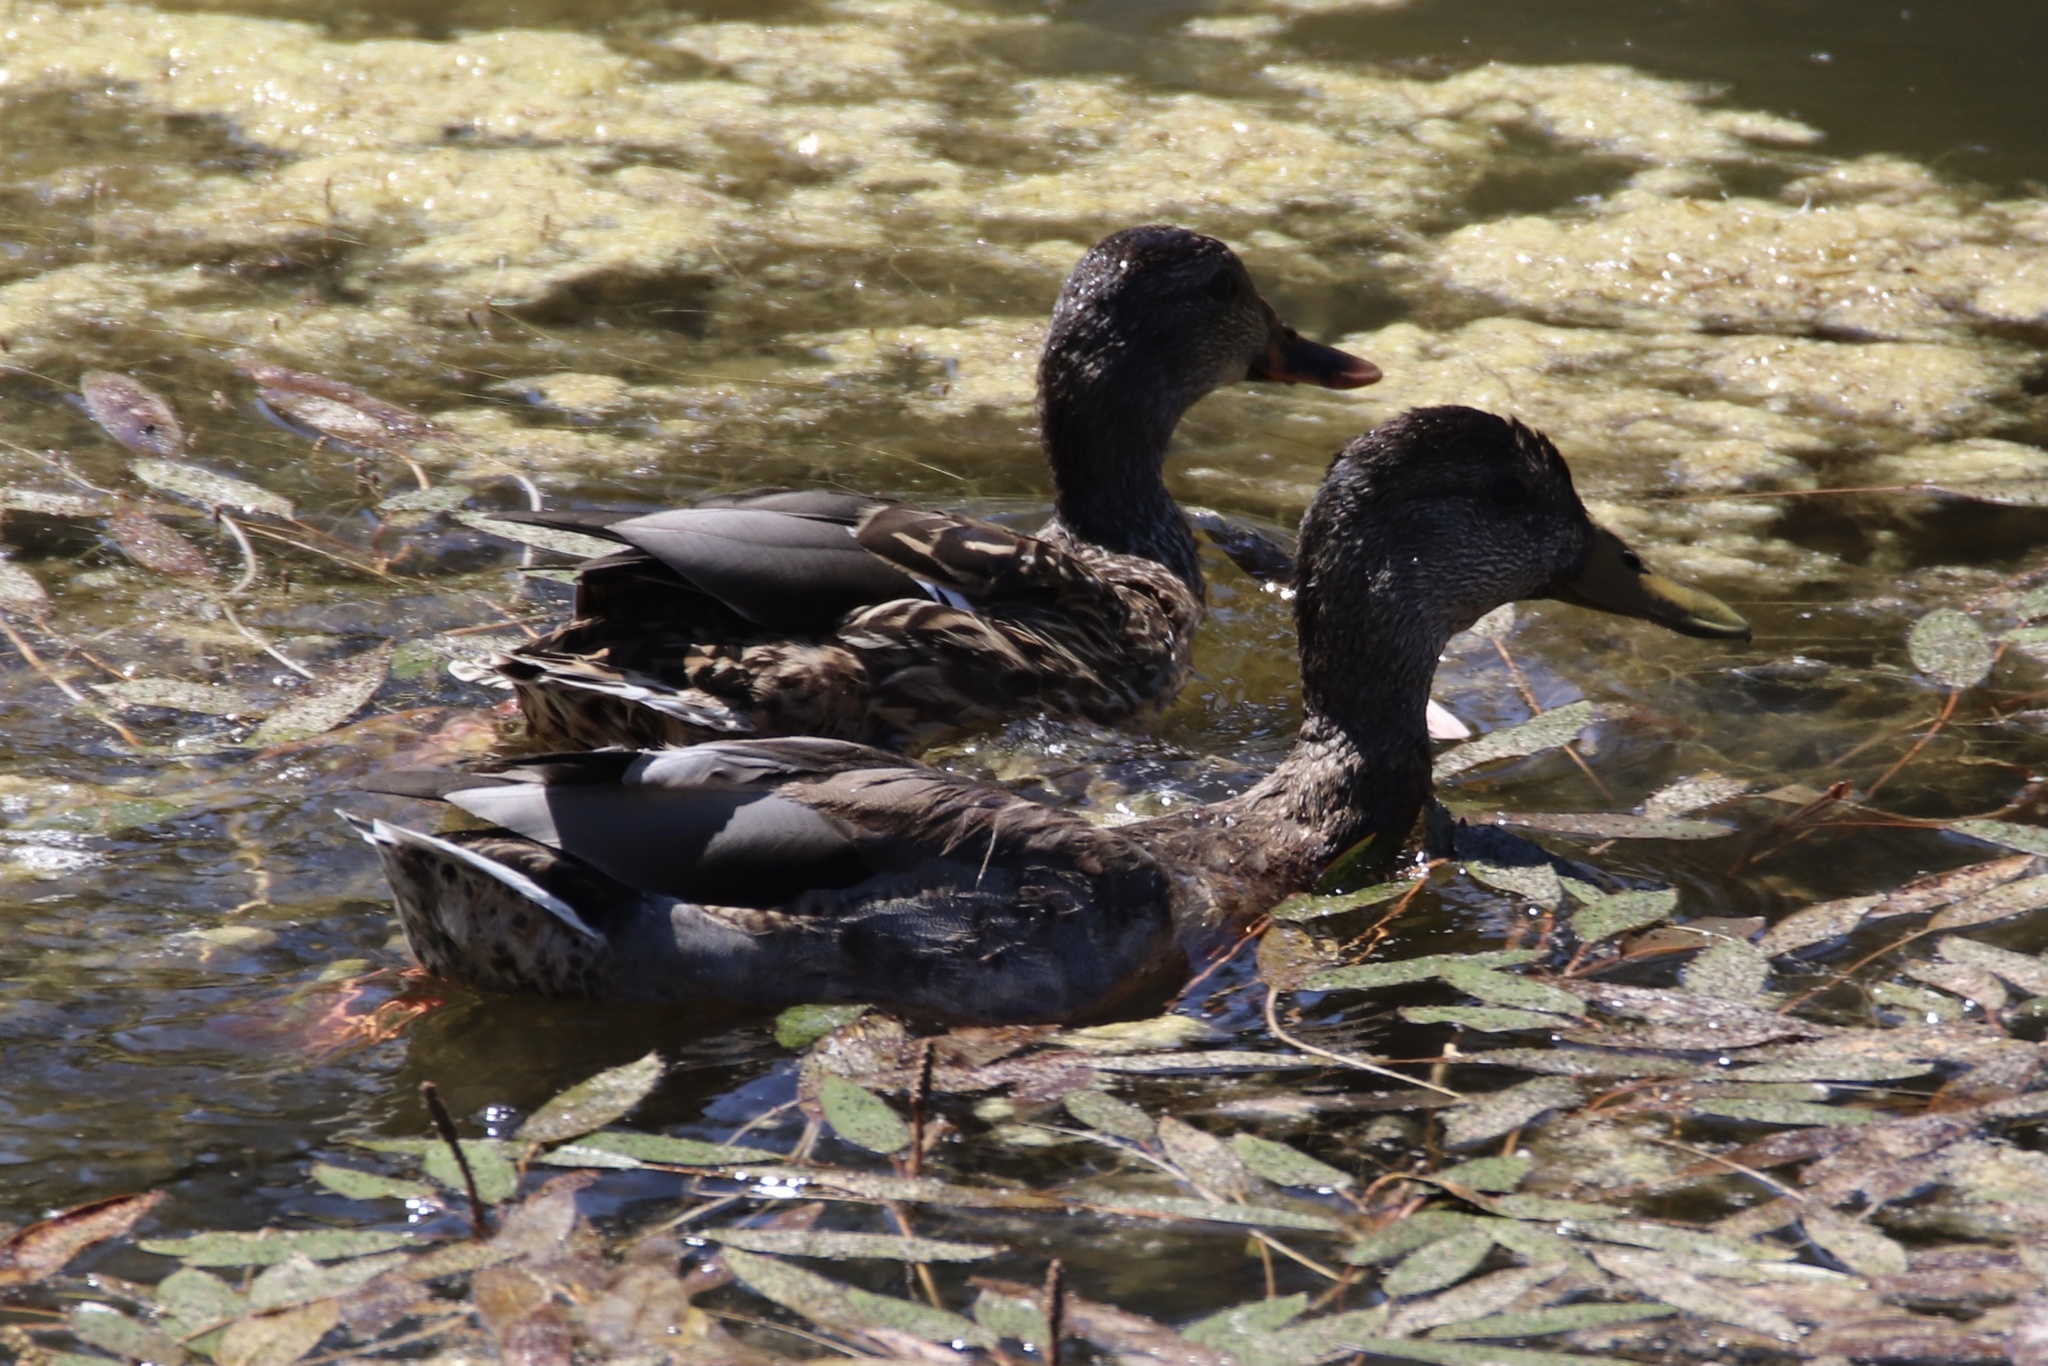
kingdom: Animalia
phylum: Chordata
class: Aves
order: Anseriformes
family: Anatidae
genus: Anas
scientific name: Anas platyrhynchos
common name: Mallard
